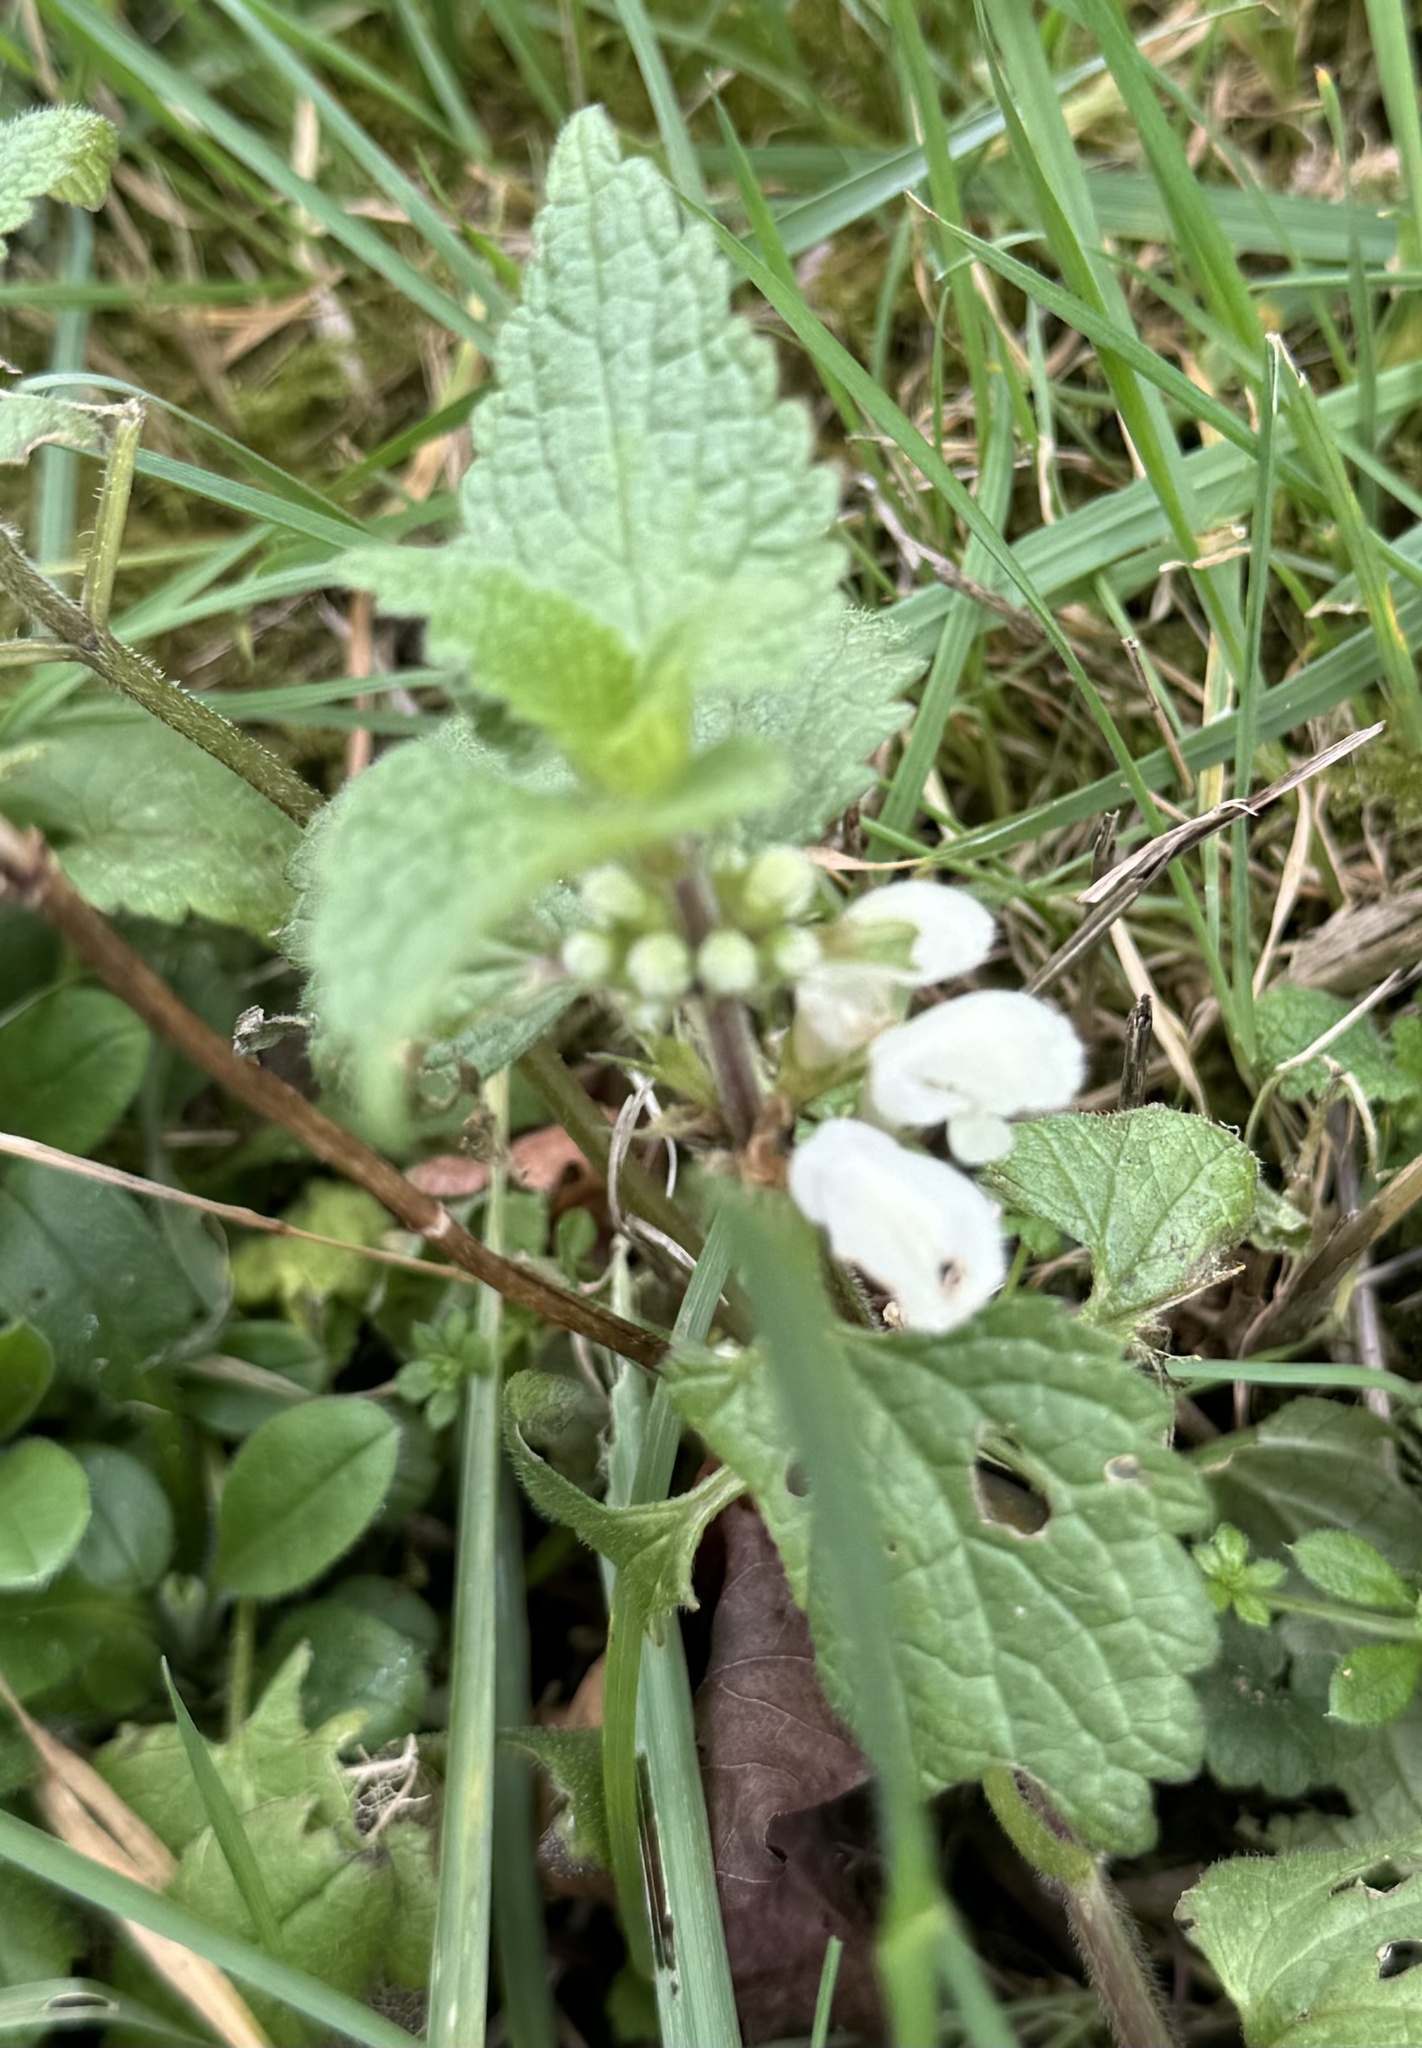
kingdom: Plantae
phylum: Tracheophyta
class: Magnoliopsida
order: Lamiales
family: Lamiaceae
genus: Lamium
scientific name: Lamium album
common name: White dead-nettle
